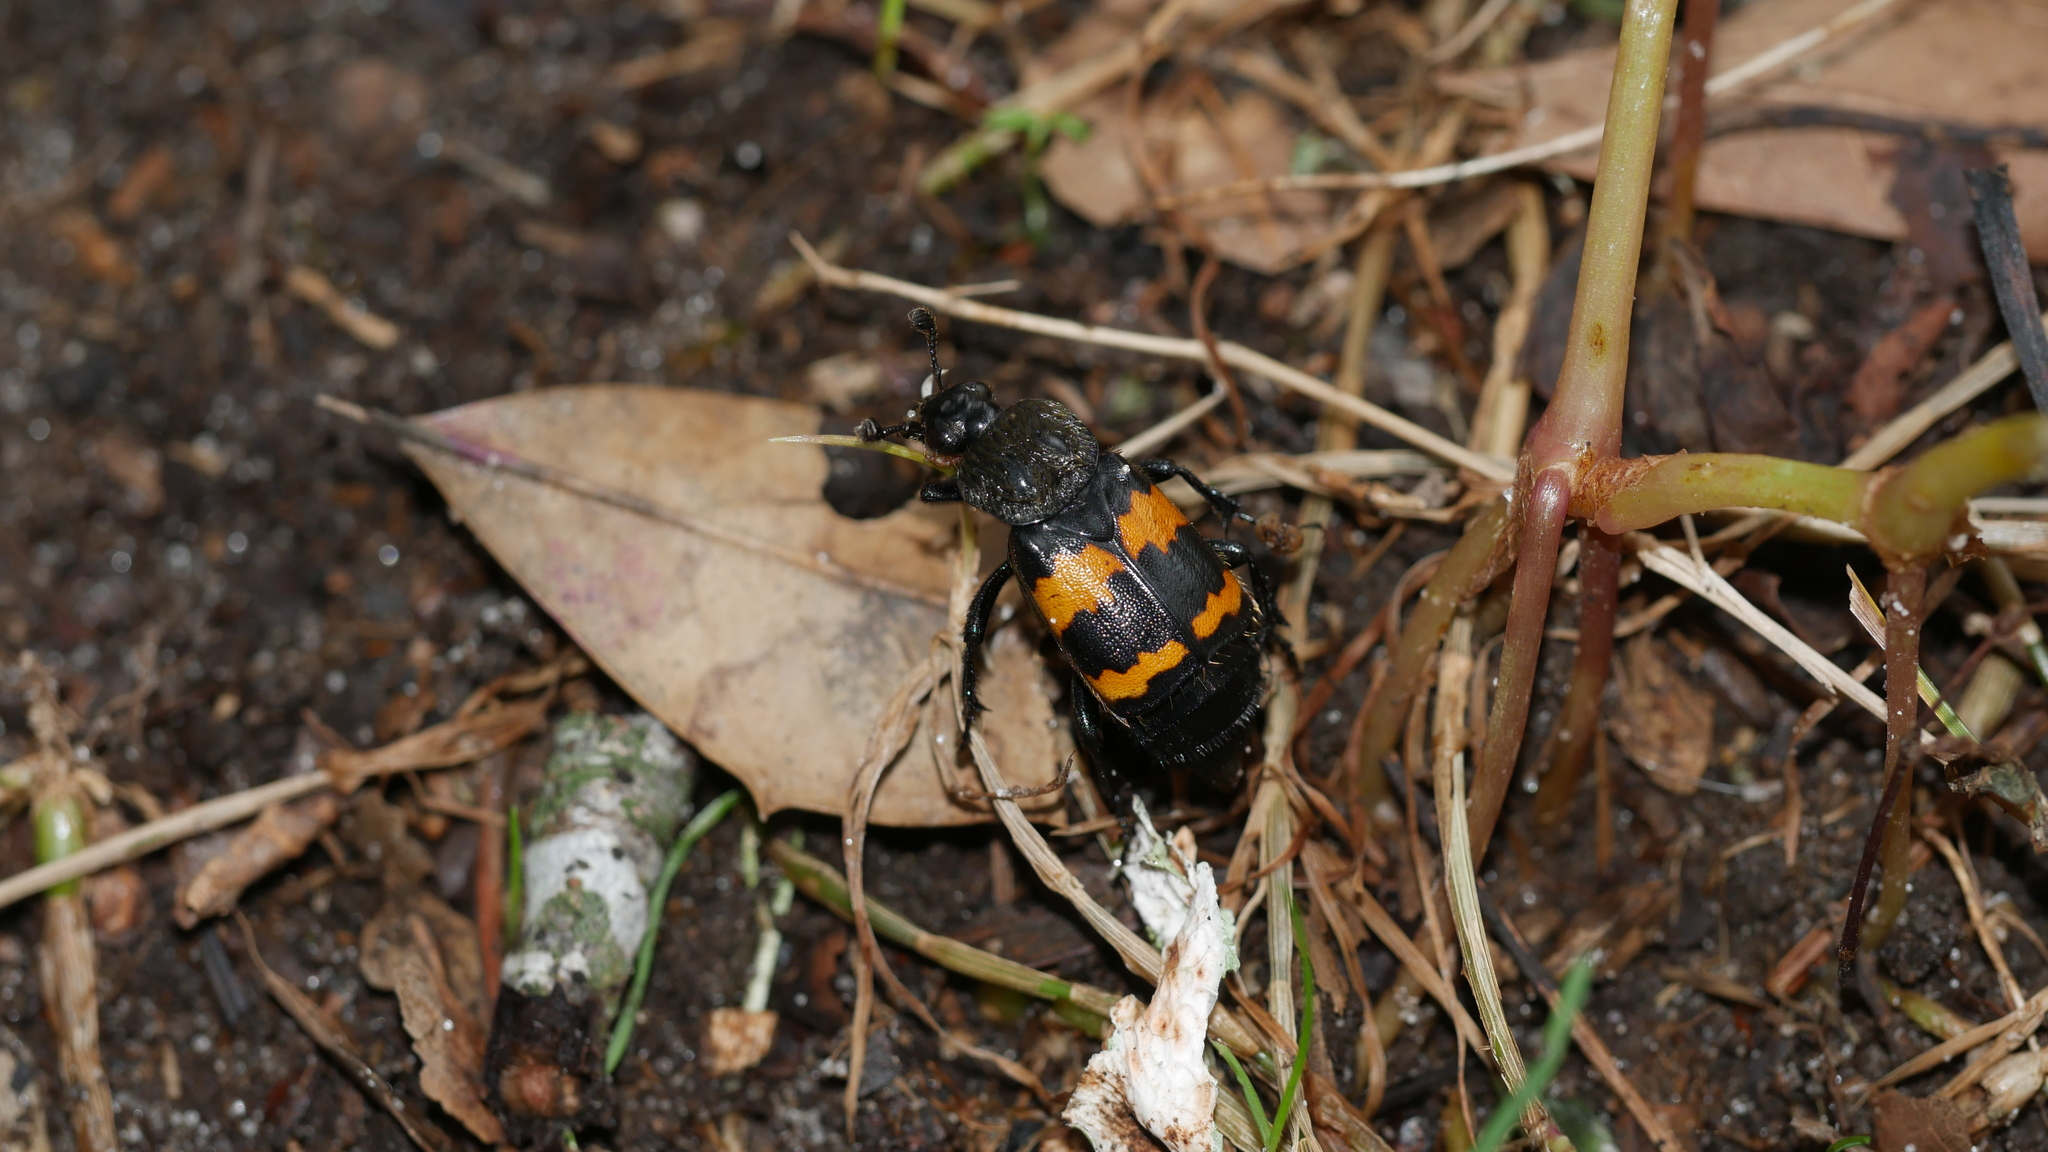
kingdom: Animalia
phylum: Arthropoda
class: Insecta
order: Coleoptera
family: Staphylinidae
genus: Nicrophorus
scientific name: Nicrophorus tomentosus
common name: Tomentose burying beetle
